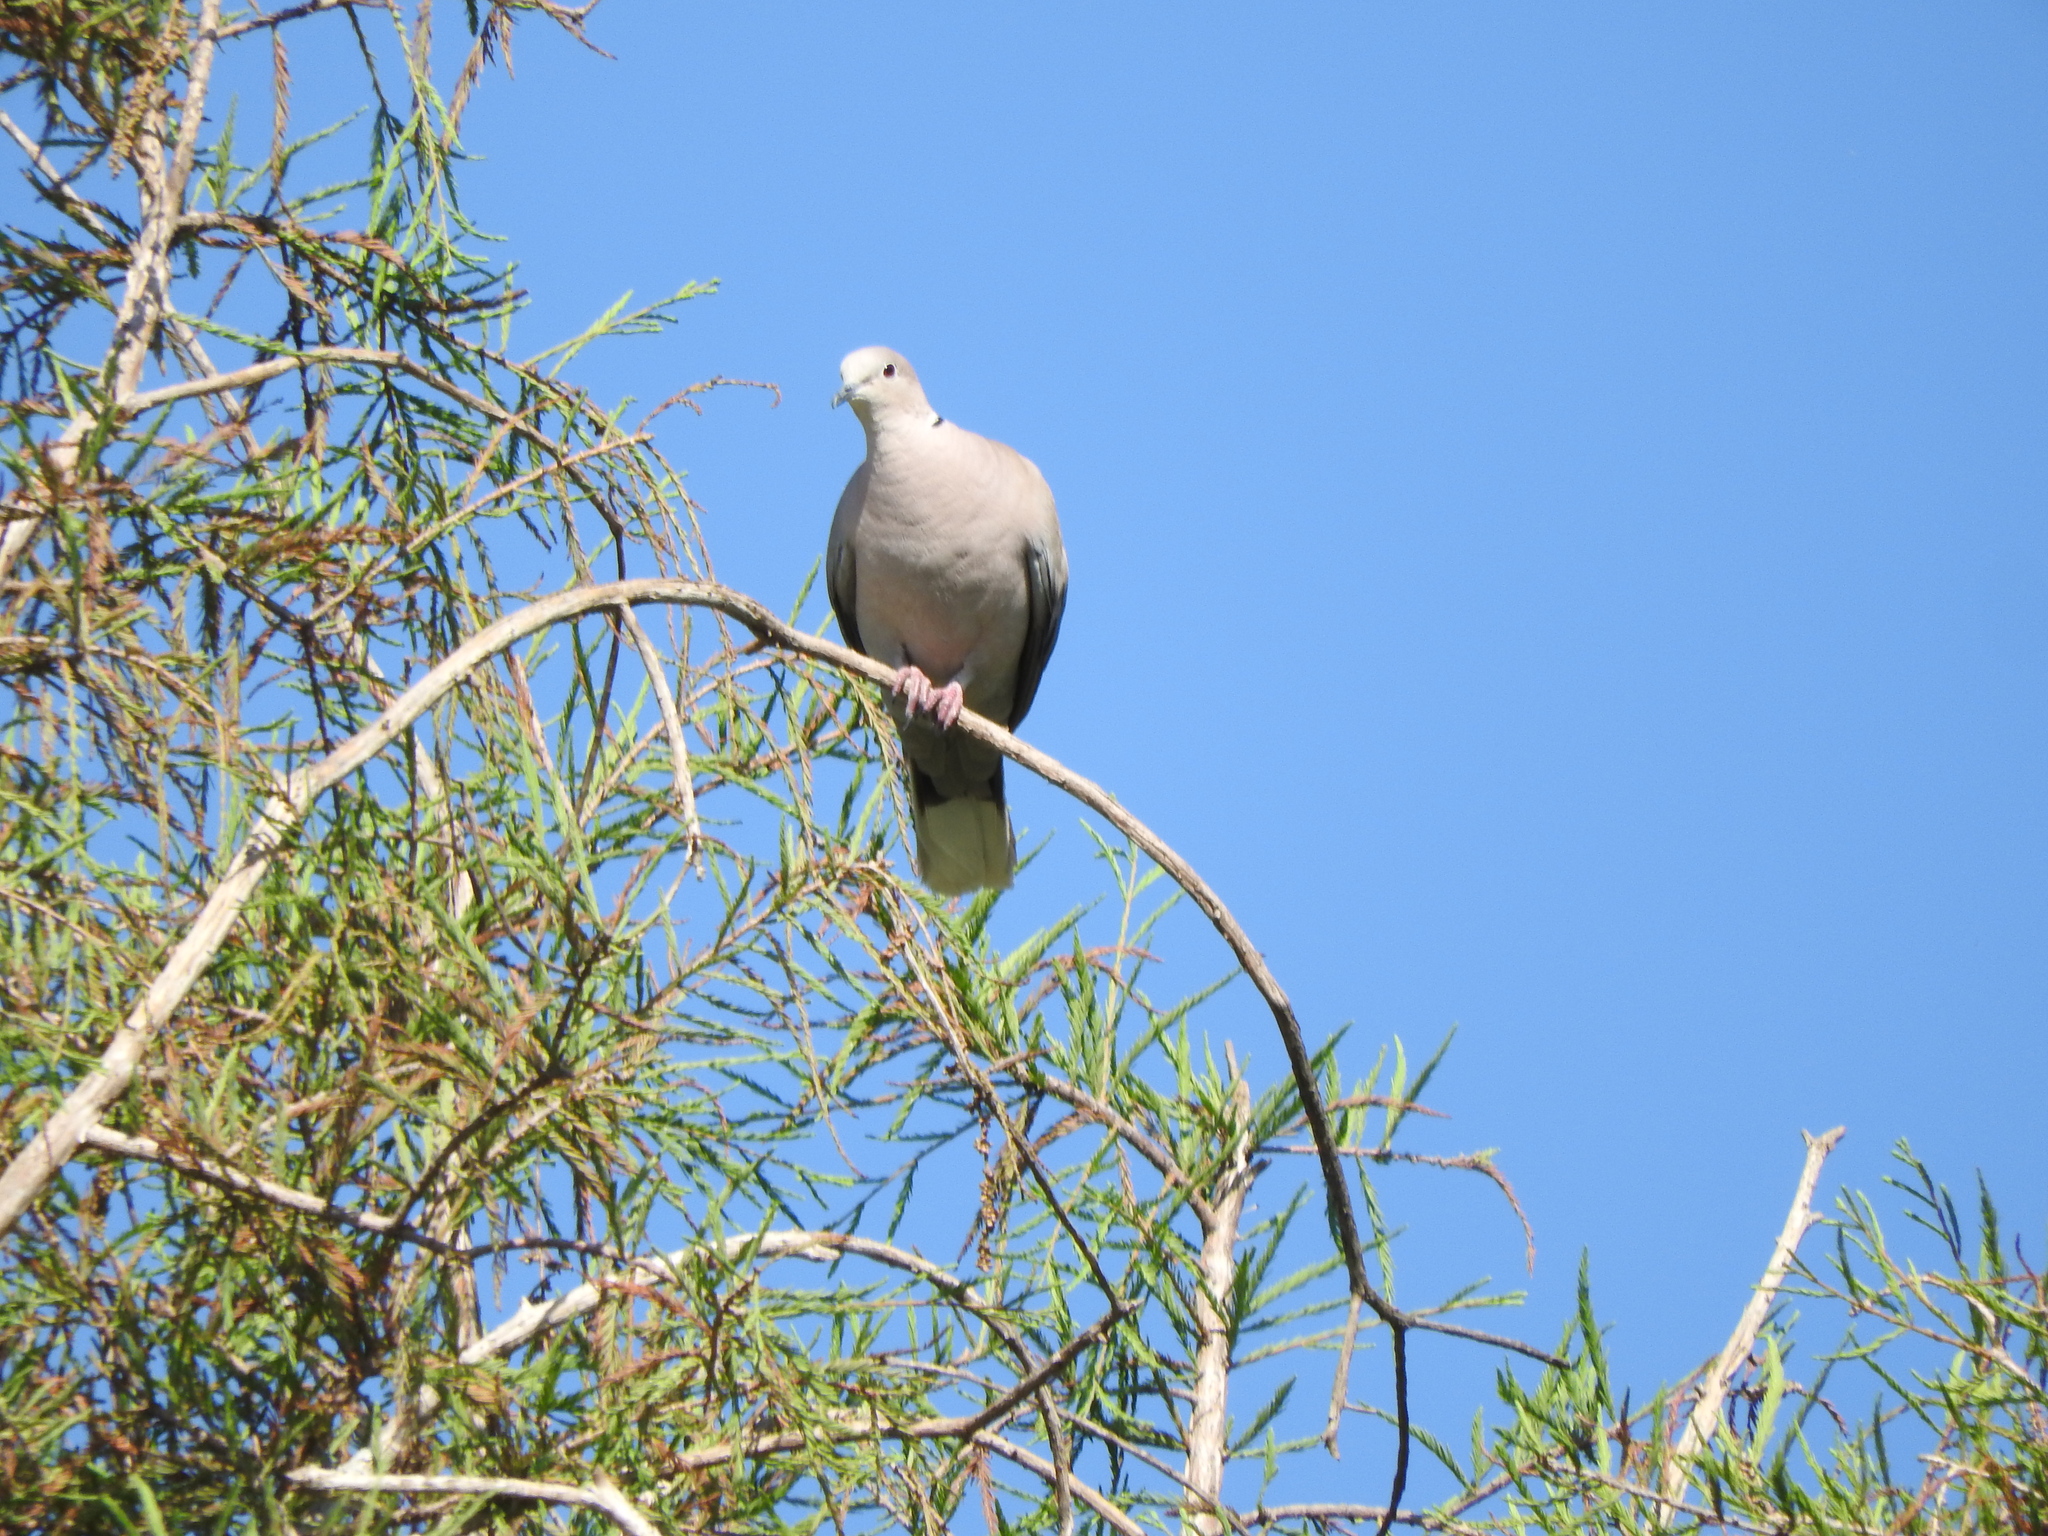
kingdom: Animalia
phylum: Chordata
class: Aves
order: Columbiformes
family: Columbidae
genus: Streptopelia
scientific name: Streptopelia decaocto
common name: Eurasian collared dove
